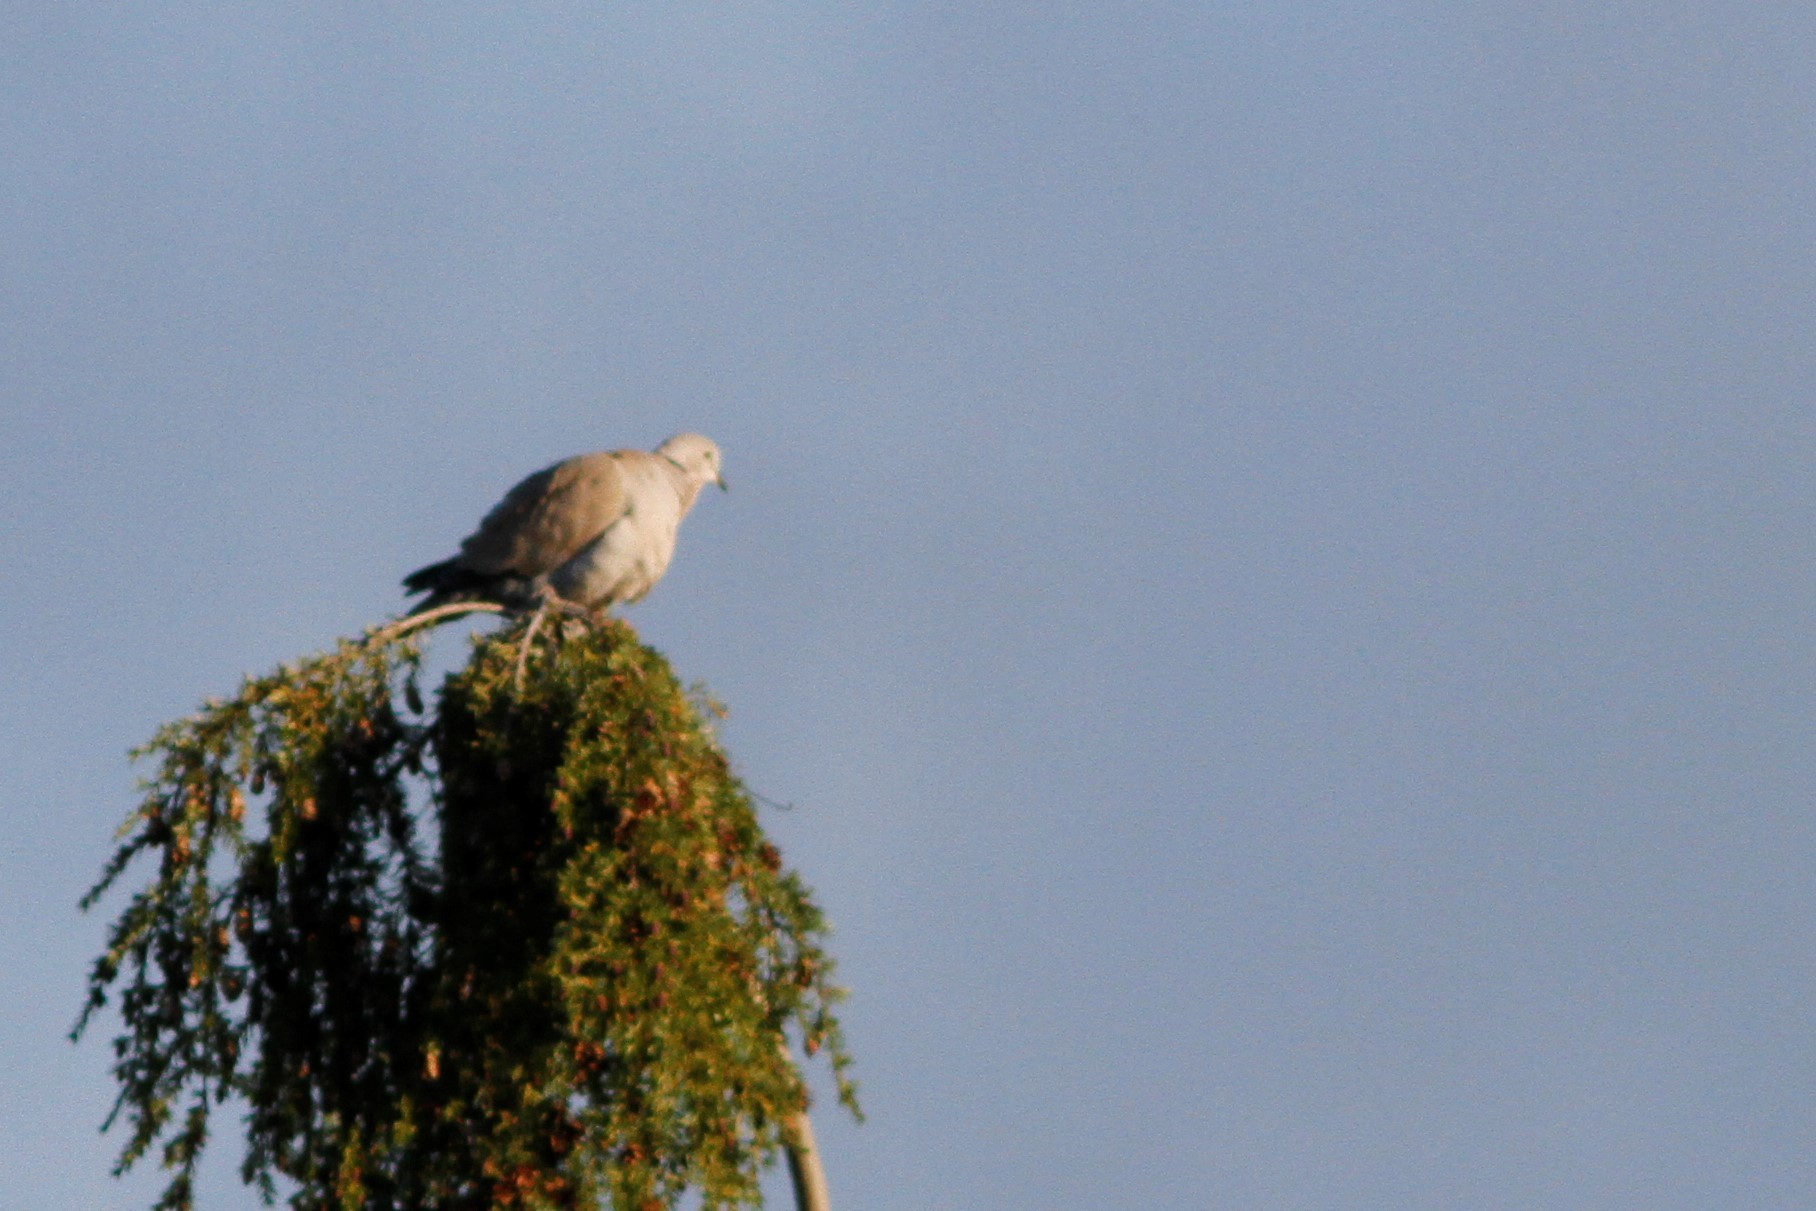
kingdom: Animalia
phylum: Chordata
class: Aves
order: Columbiformes
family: Columbidae
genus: Streptopelia
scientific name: Streptopelia decaocto
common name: Eurasian collared dove
